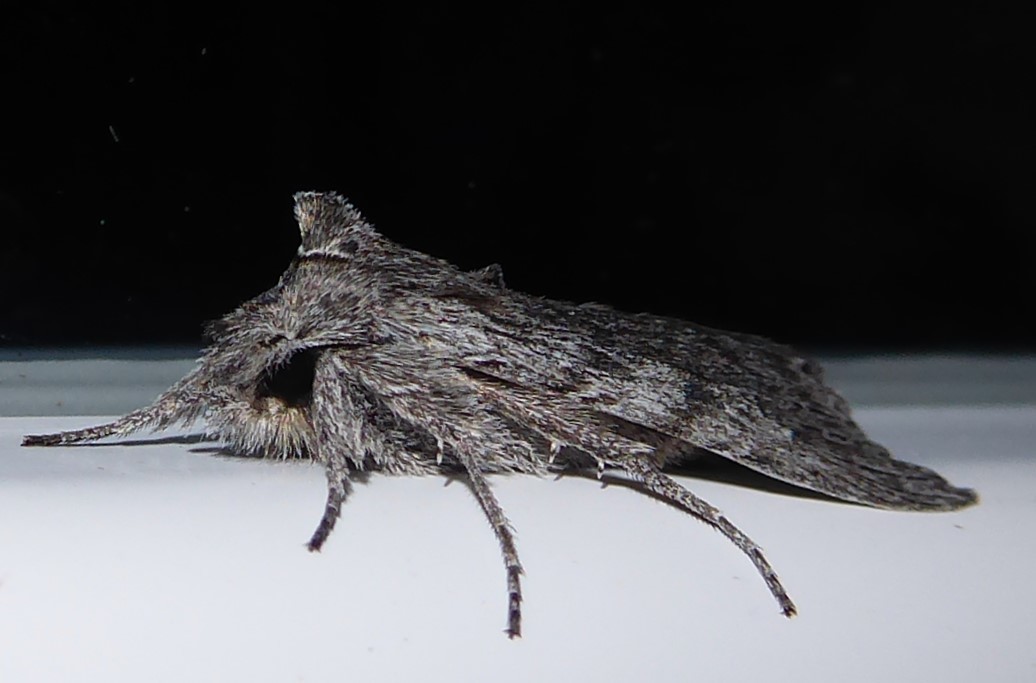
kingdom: Animalia
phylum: Arthropoda
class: Insecta
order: Lepidoptera
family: Noctuidae
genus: Physetica
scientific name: Physetica phricias
